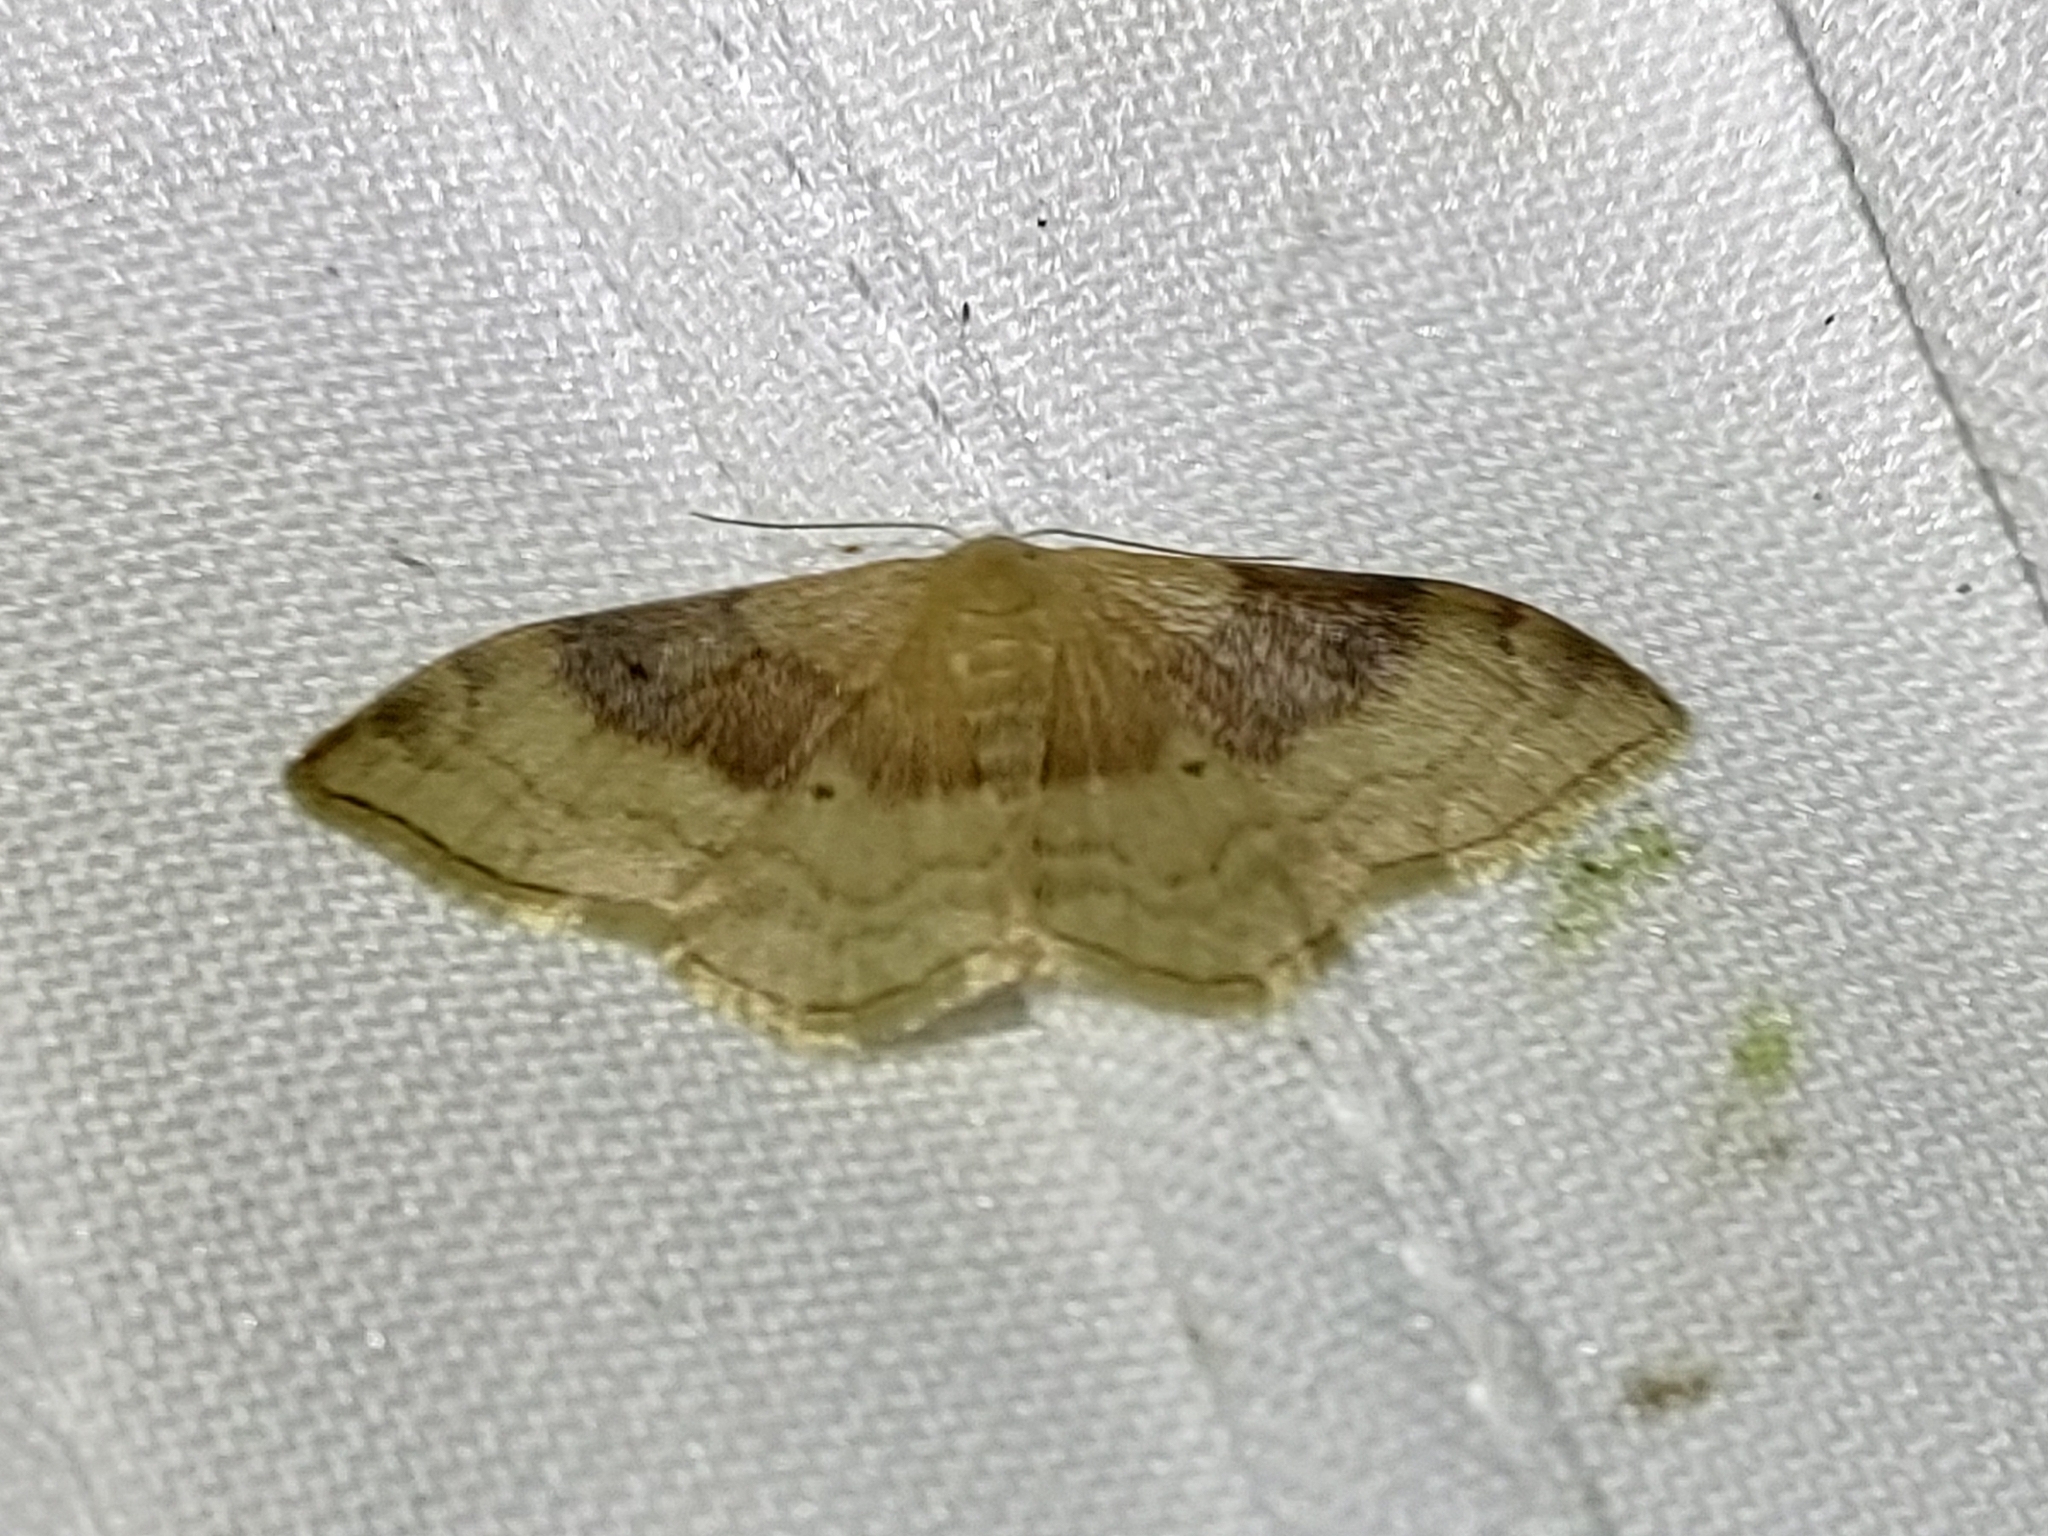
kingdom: Animalia
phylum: Arthropoda
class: Insecta
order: Lepidoptera
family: Geometridae
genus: Idaea
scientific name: Idaea degeneraria
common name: Portland ribbon wave
